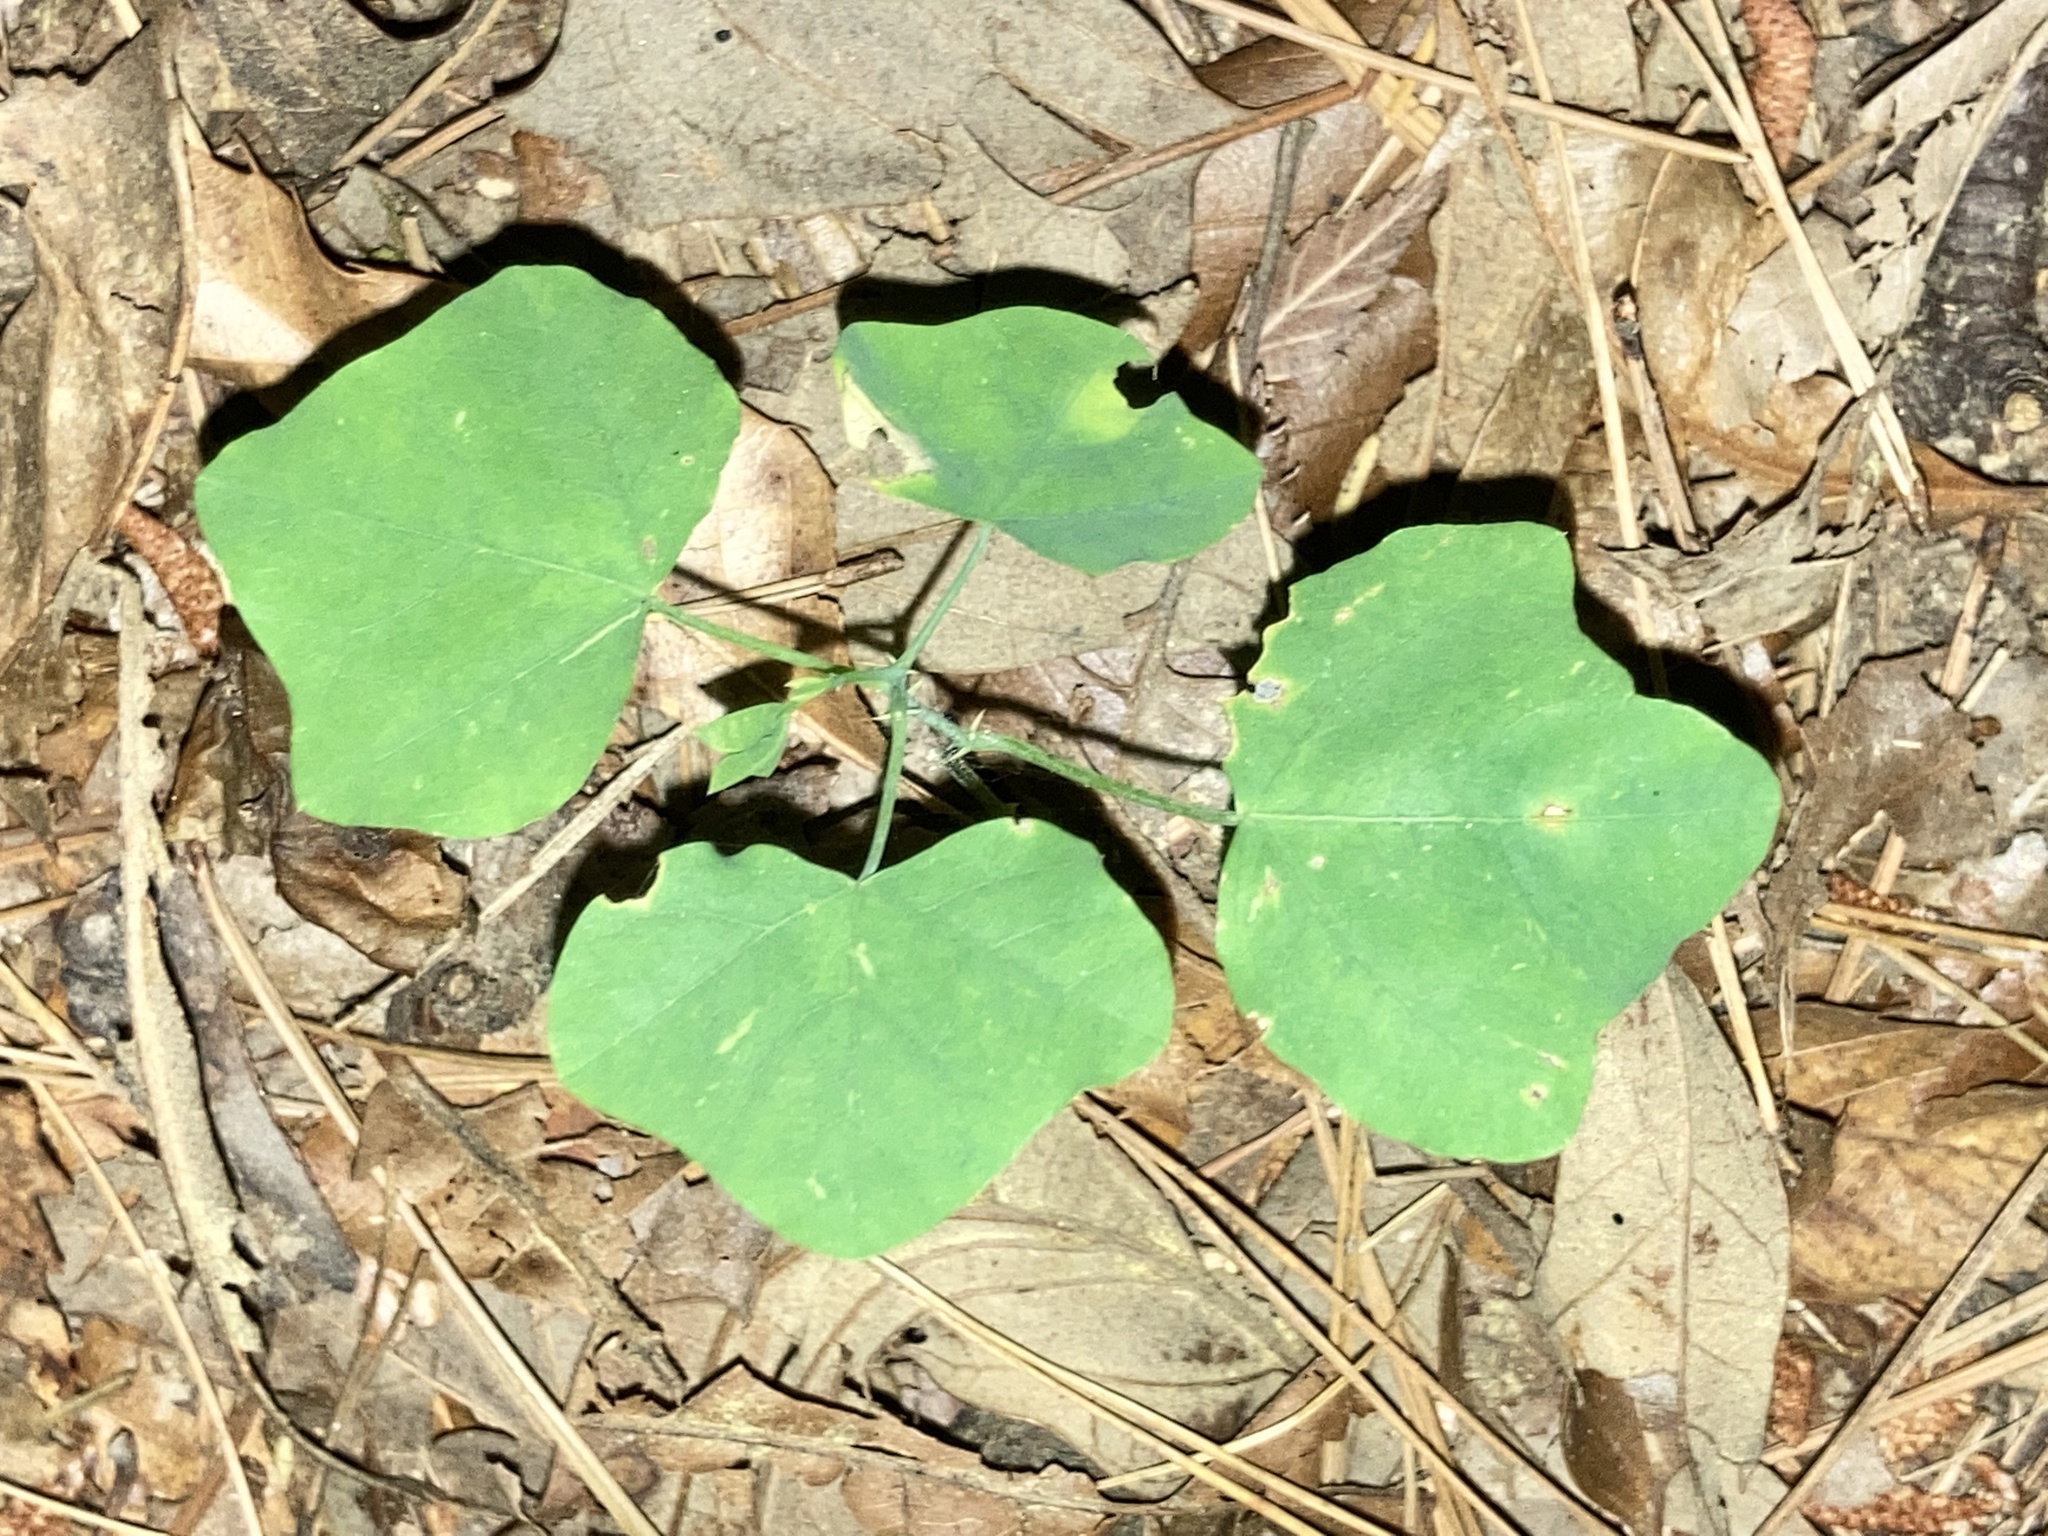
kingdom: Plantae
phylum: Tracheophyta
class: Magnoliopsida
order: Malpighiales
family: Passifloraceae
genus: Passiflora
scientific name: Passiflora lutea
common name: Yellow passionflower
